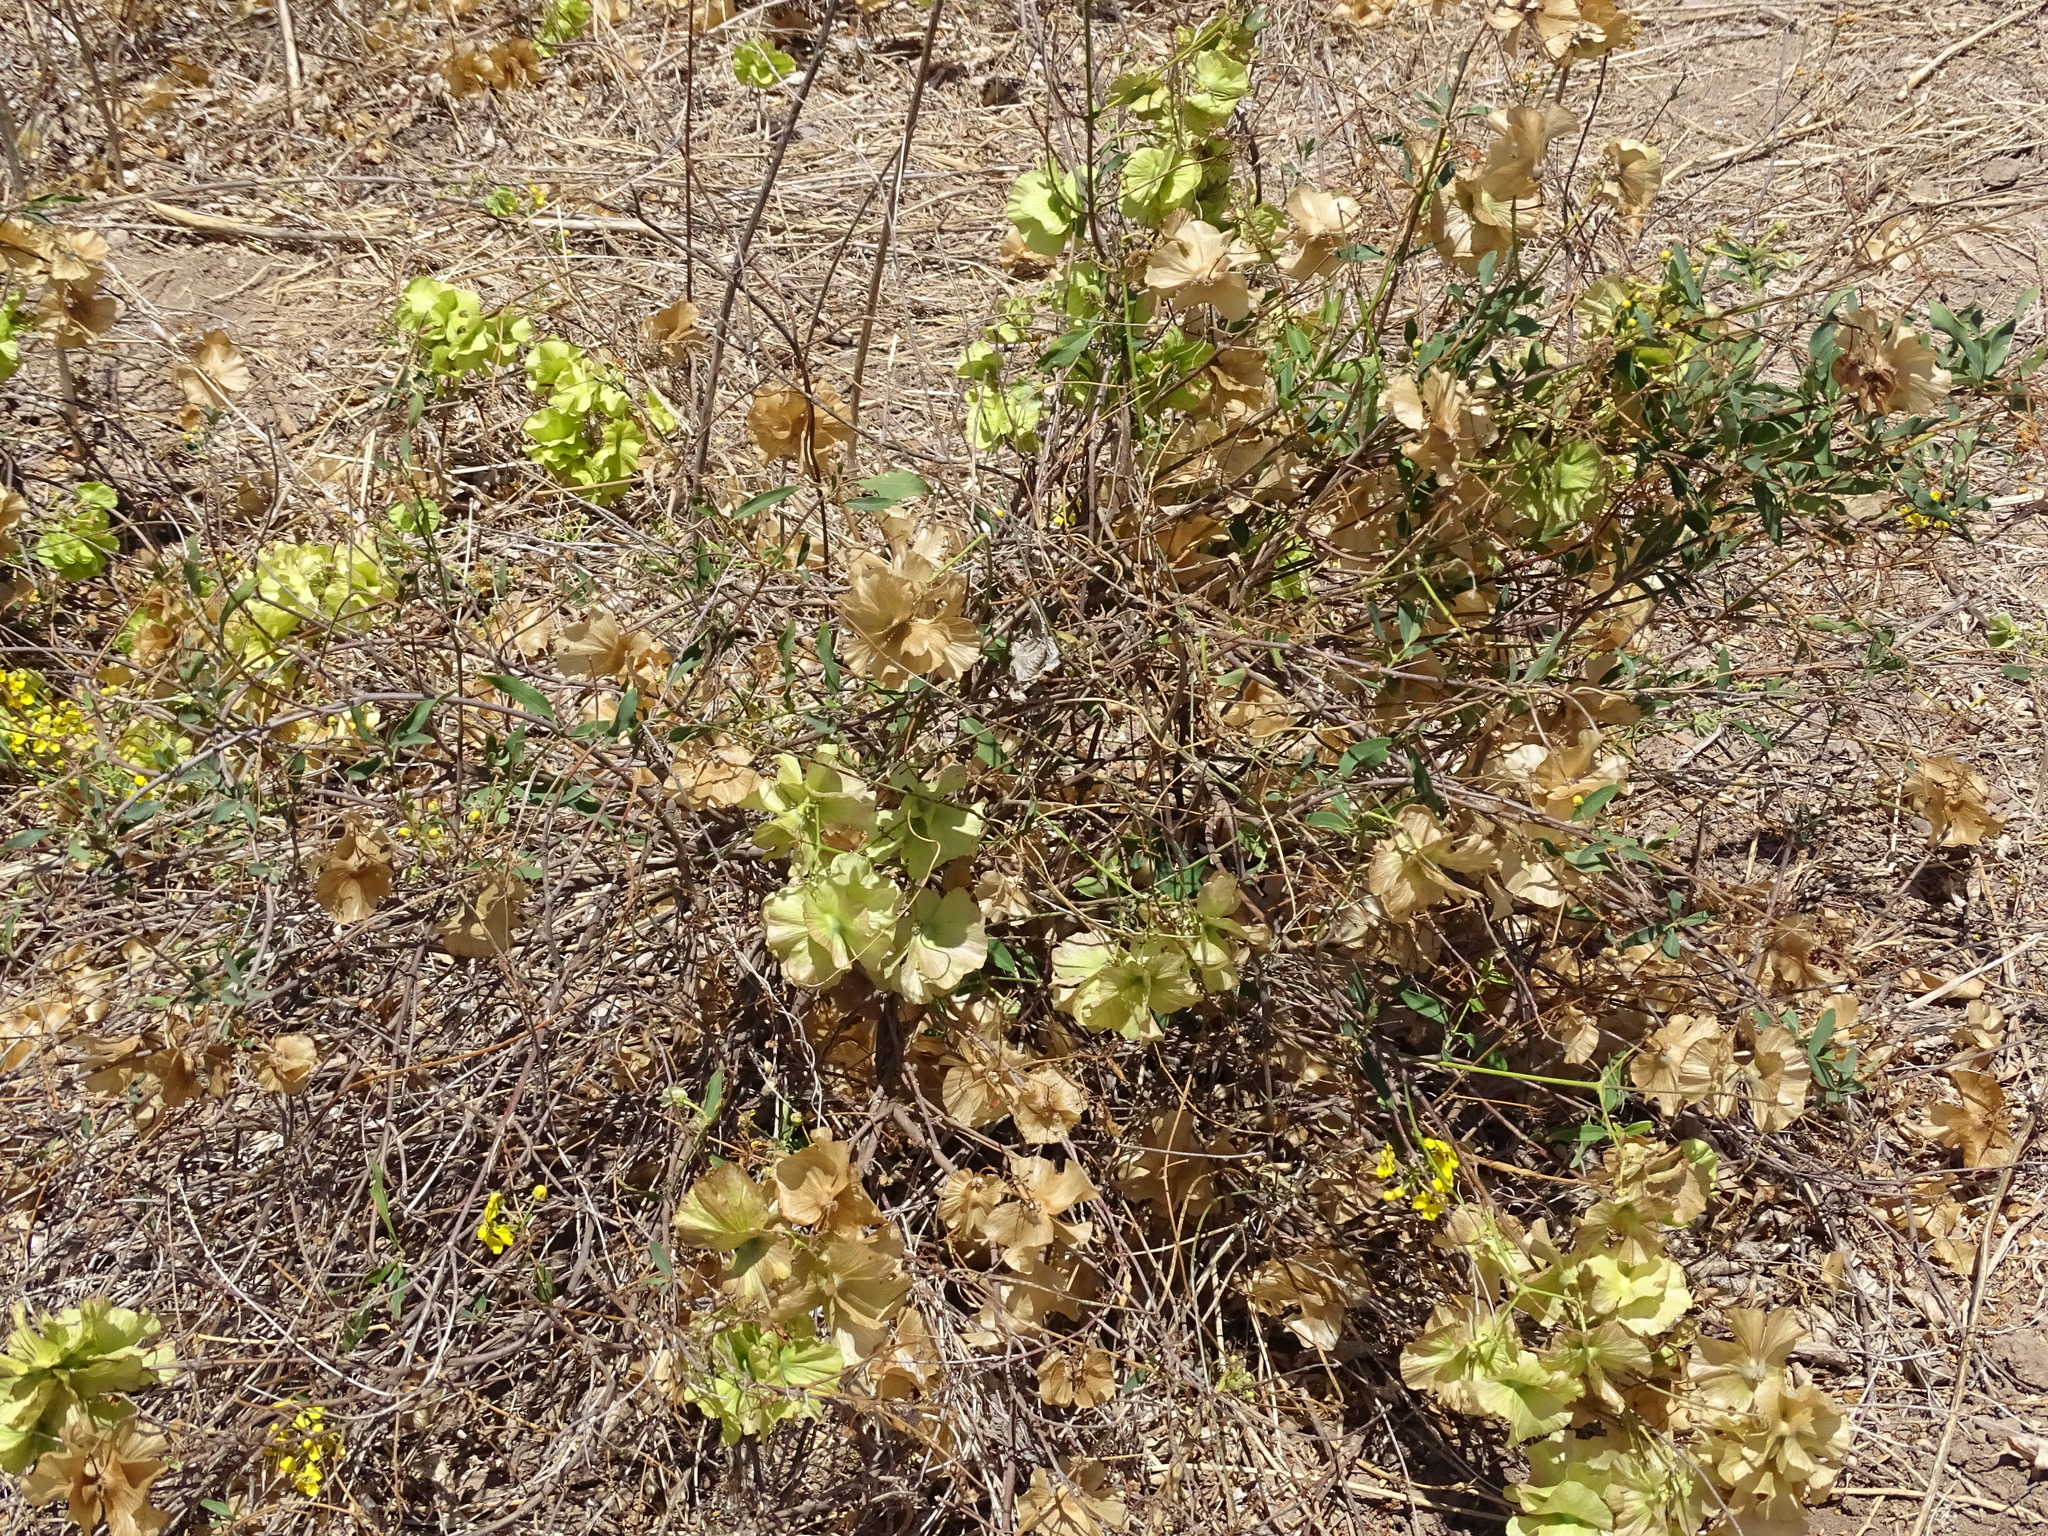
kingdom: Plantae
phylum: Tracheophyta
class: Magnoliopsida
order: Malpighiales
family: Malpighiaceae
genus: Callaeum
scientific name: Callaeum macropterum
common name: Mexican butterfly-vine
